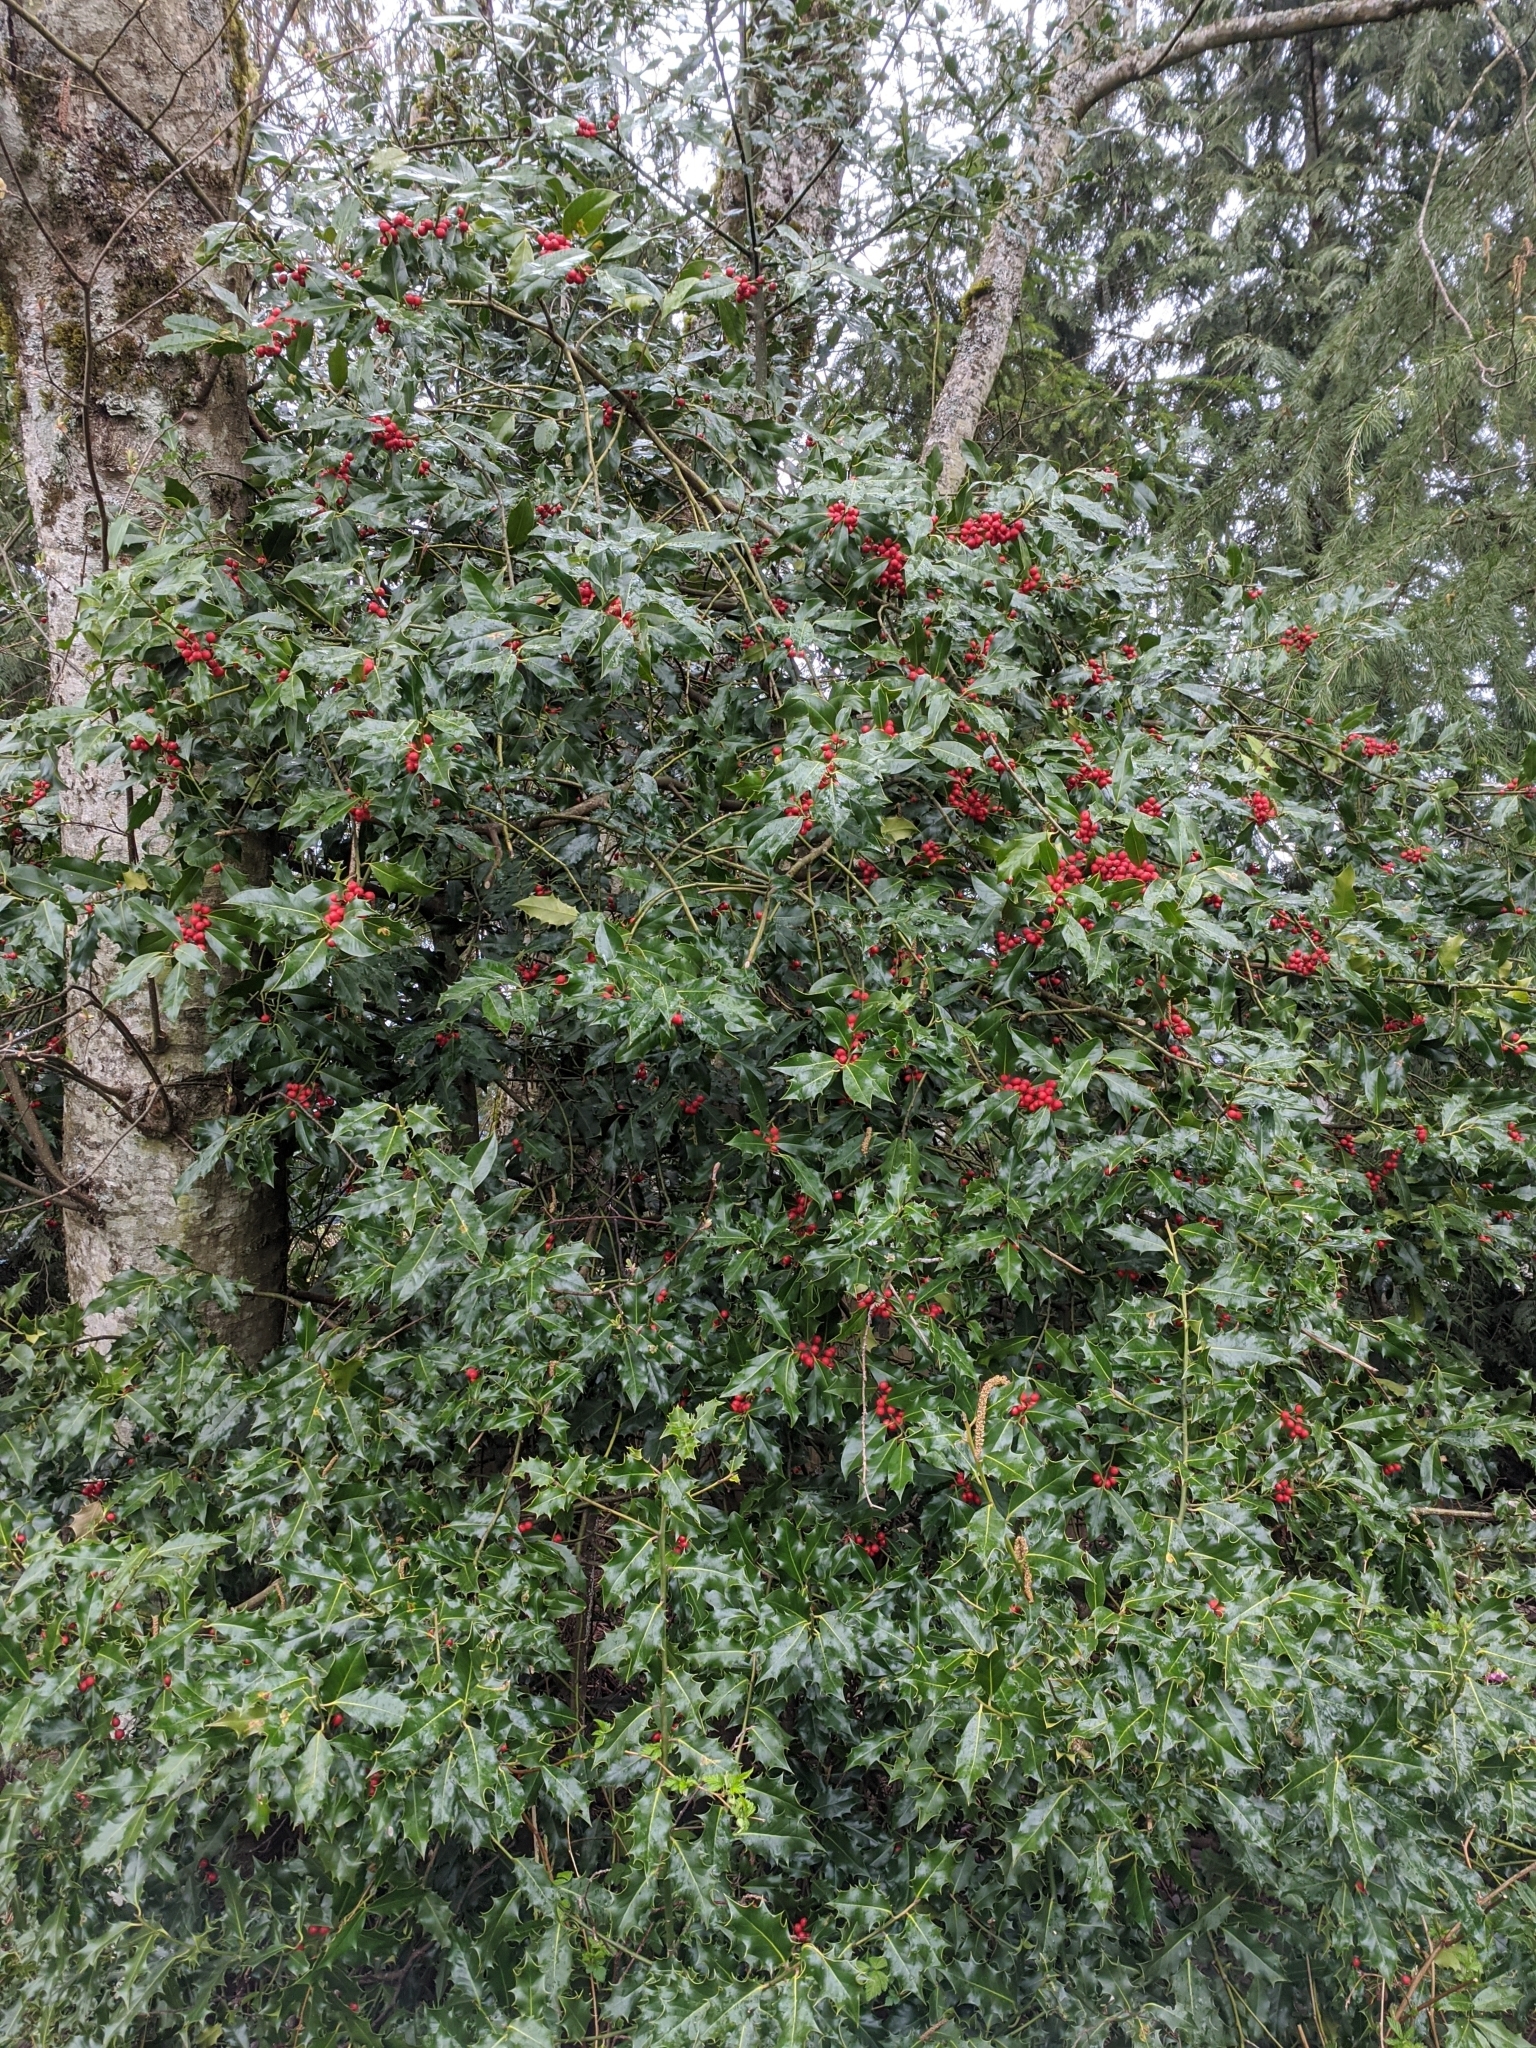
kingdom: Plantae
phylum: Tracheophyta
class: Magnoliopsida
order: Aquifoliales
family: Aquifoliaceae
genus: Ilex
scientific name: Ilex aquifolium
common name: English holly
